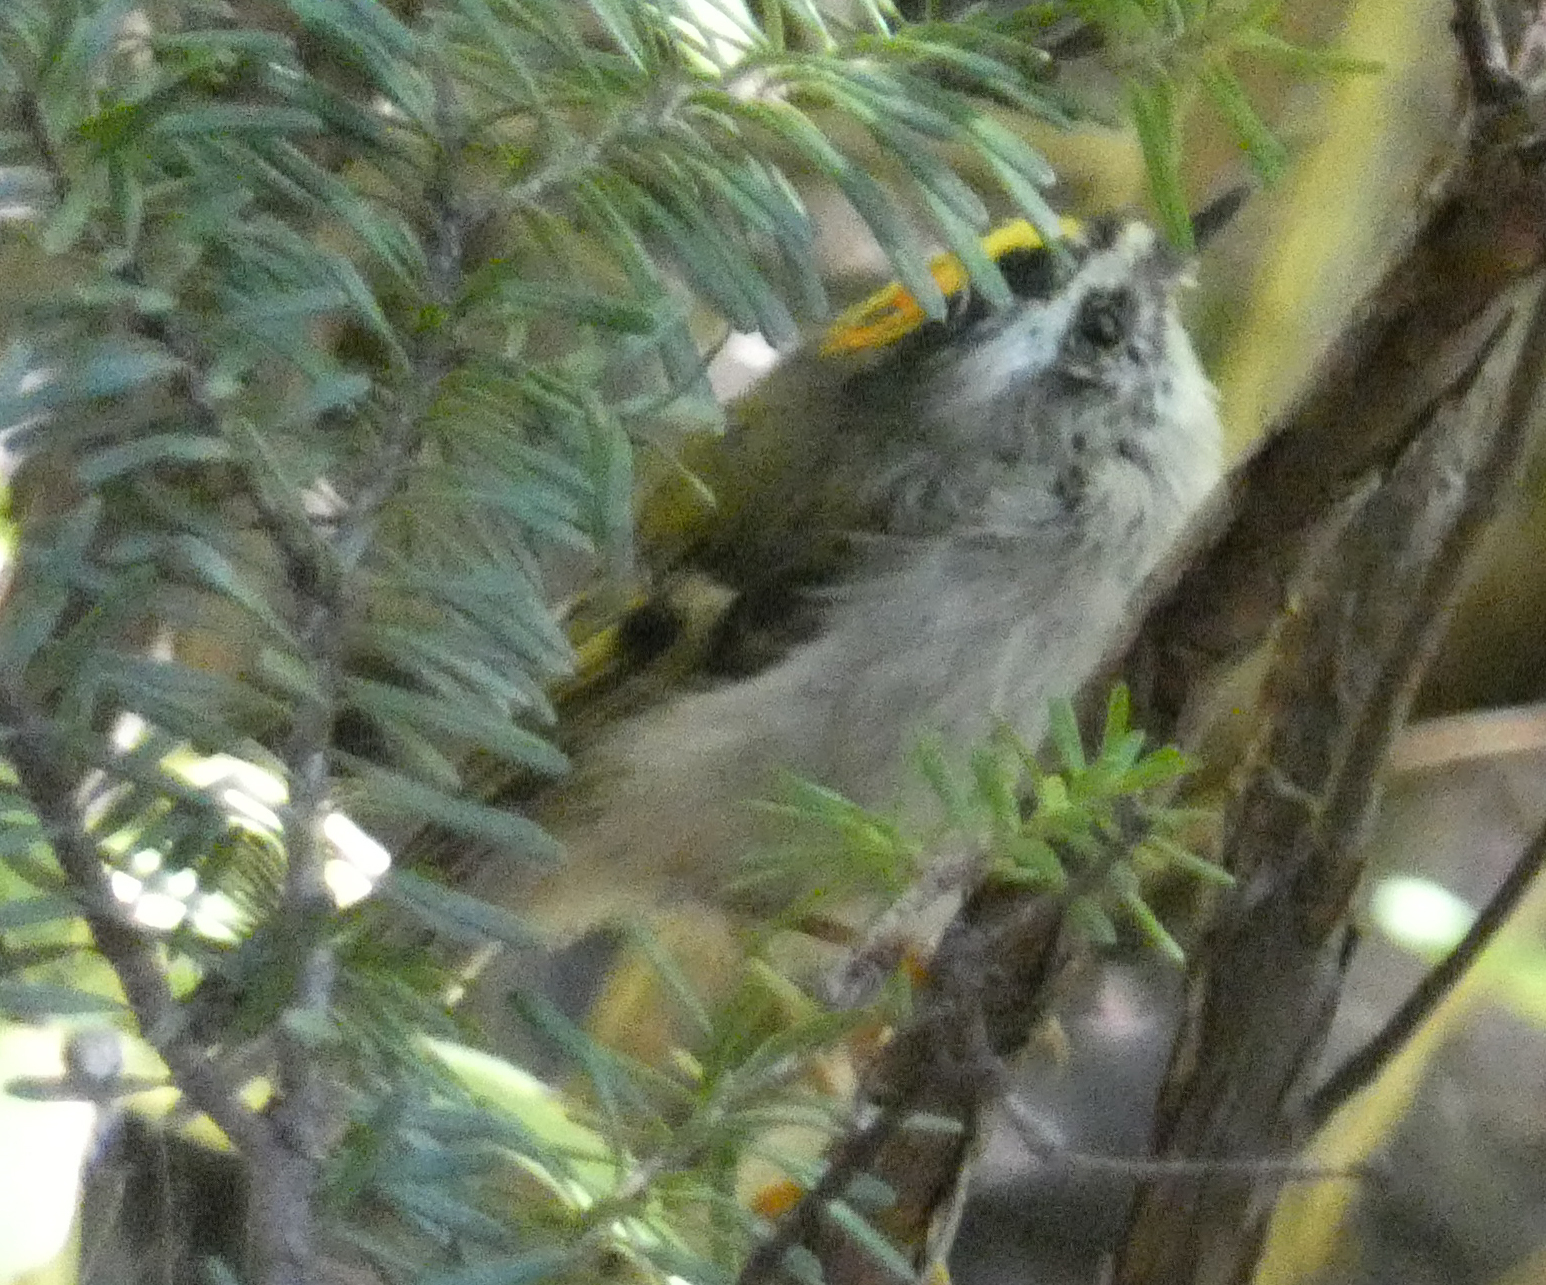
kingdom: Animalia
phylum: Chordata
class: Aves
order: Passeriformes
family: Regulidae
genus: Regulus
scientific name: Regulus satrapa
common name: Golden-crowned kinglet
